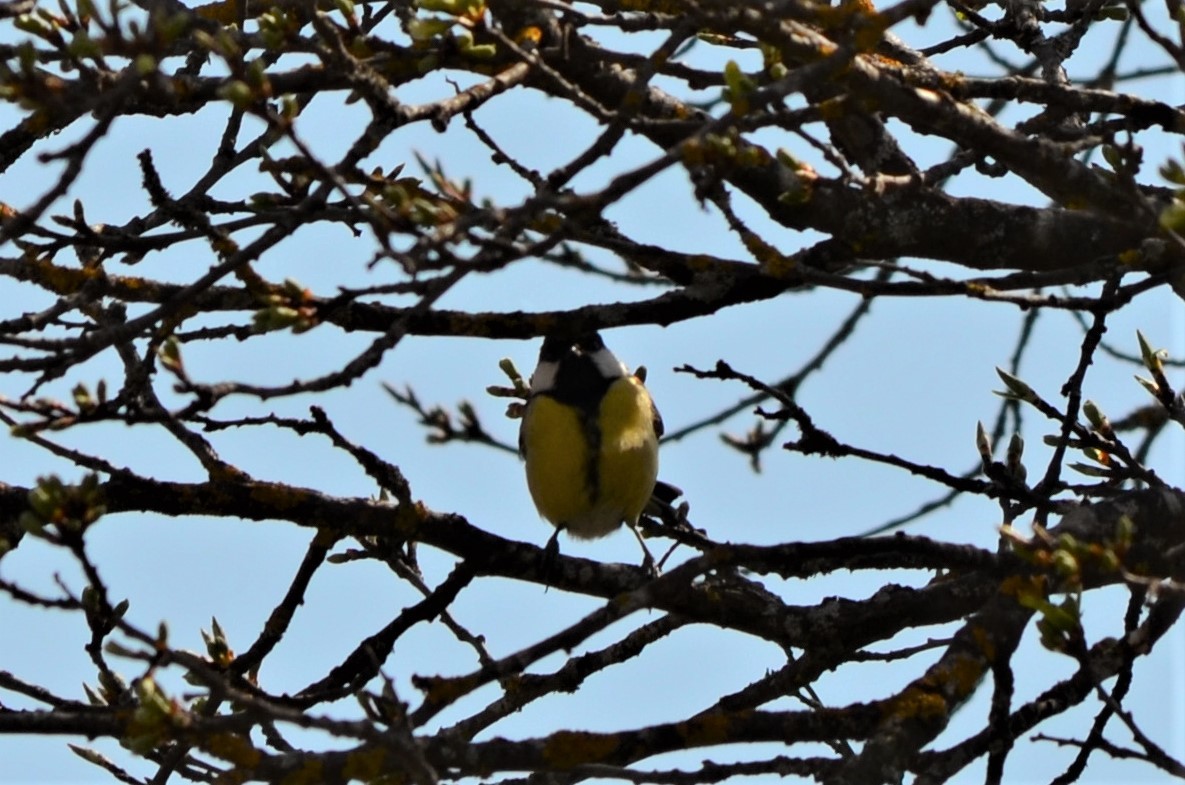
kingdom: Animalia
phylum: Chordata
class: Aves
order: Passeriformes
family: Paridae
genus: Parus
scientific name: Parus major
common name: Great tit
